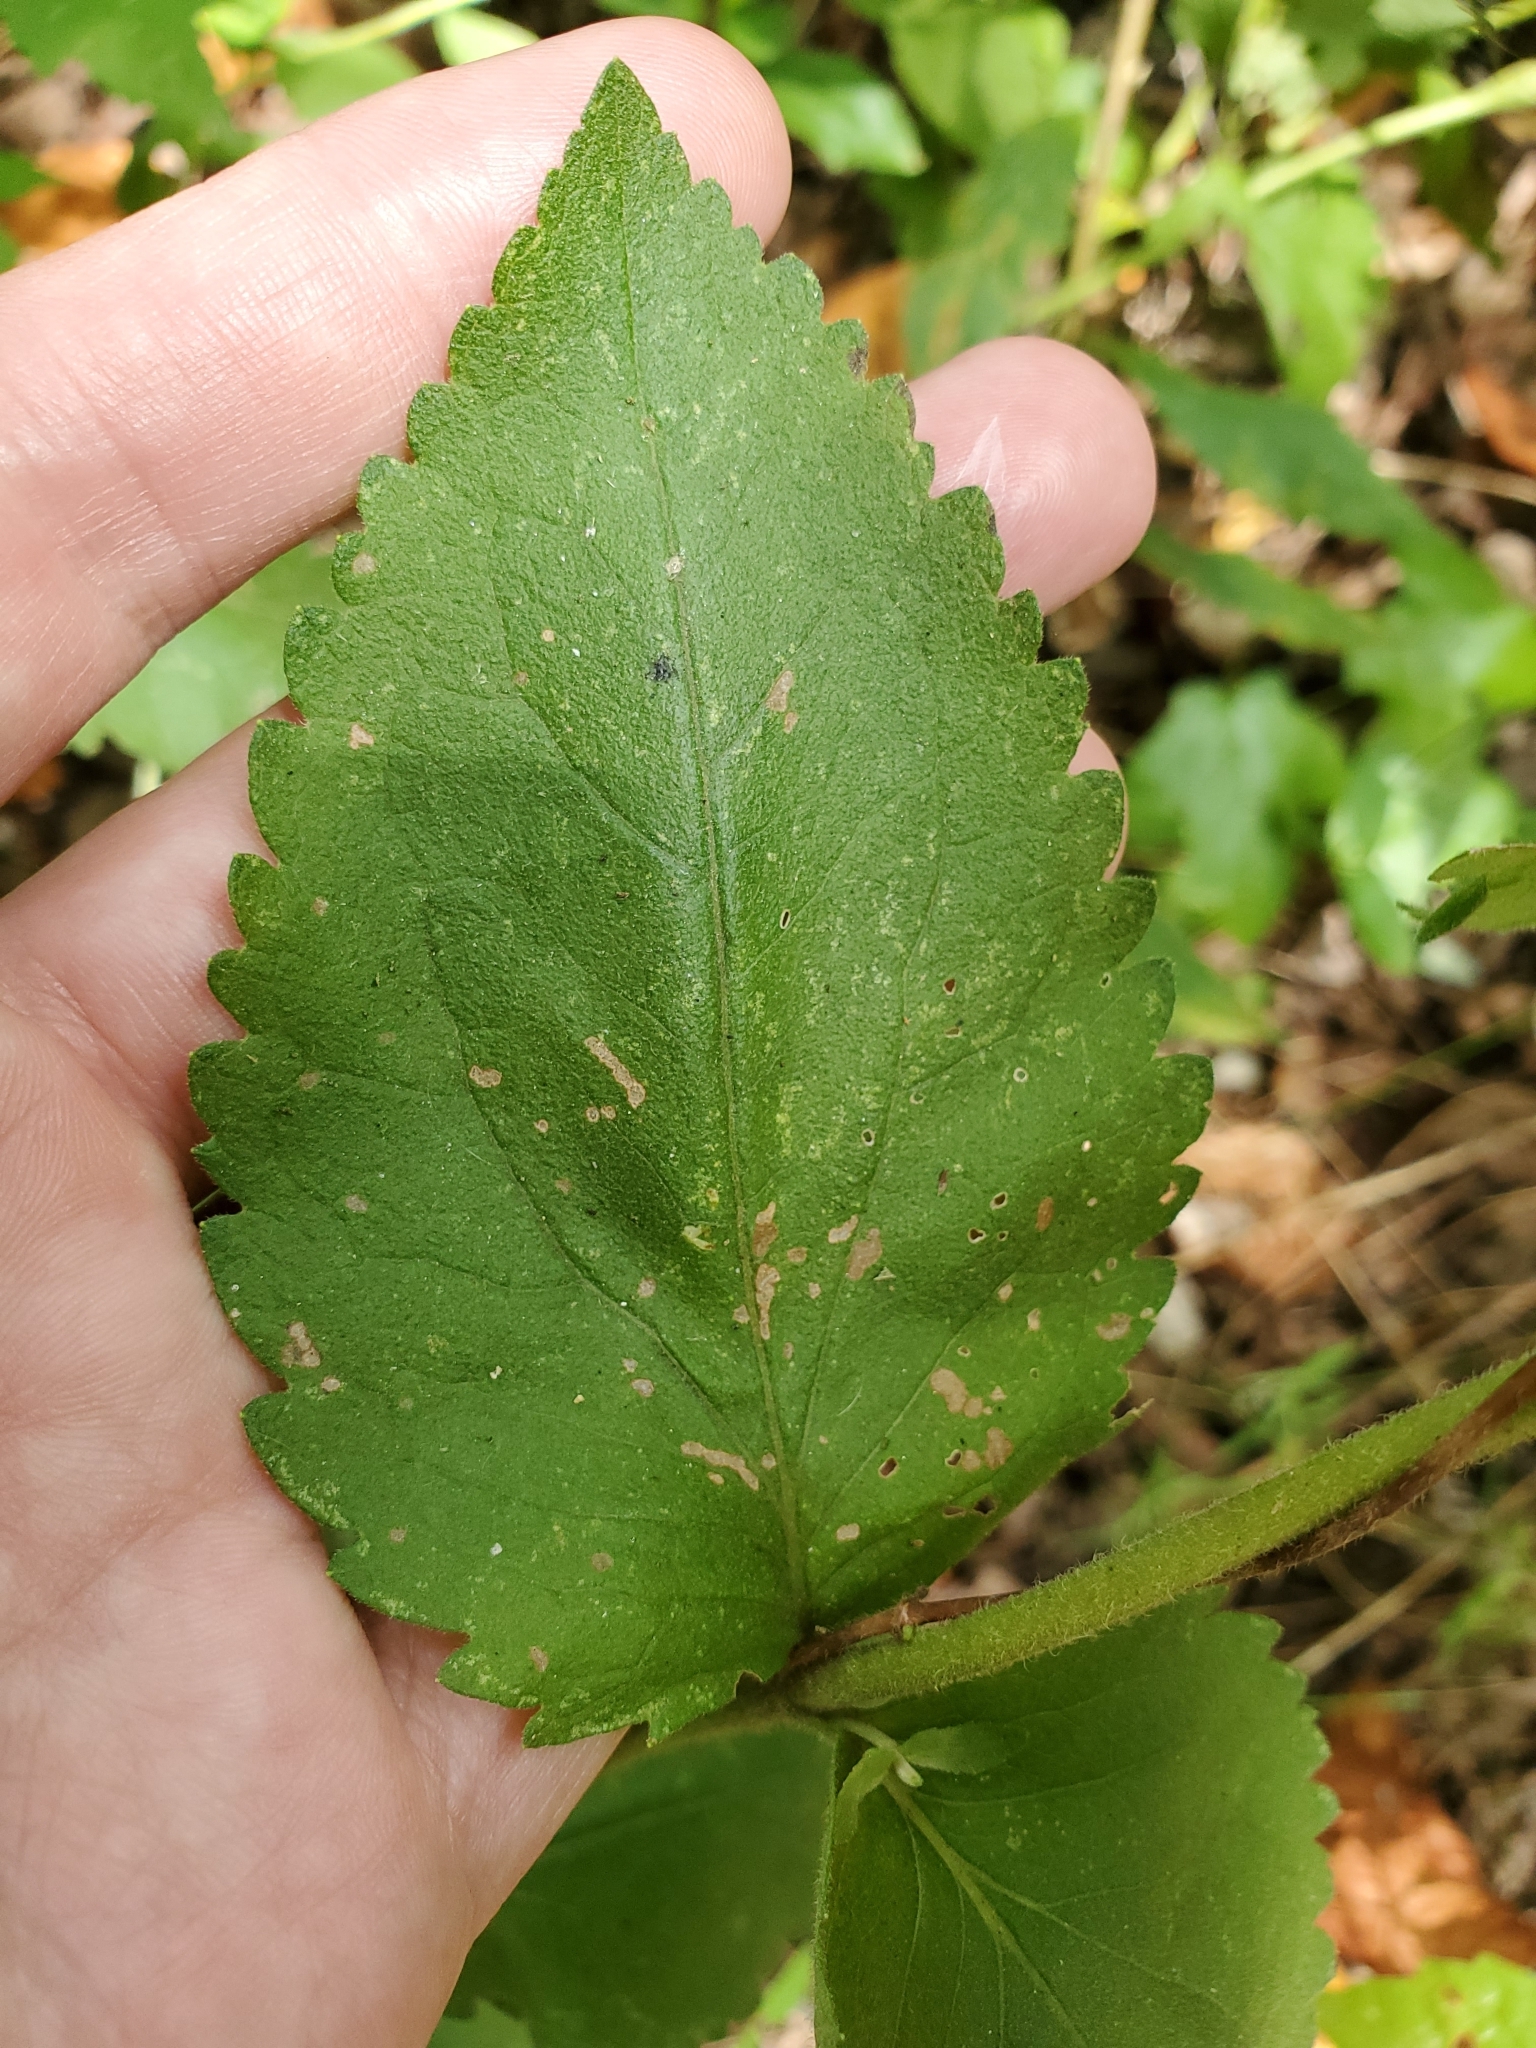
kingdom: Plantae
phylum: Tracheophyta
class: Magnoliopsida
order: Asterales
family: Asteraceae
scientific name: Asteraceae
